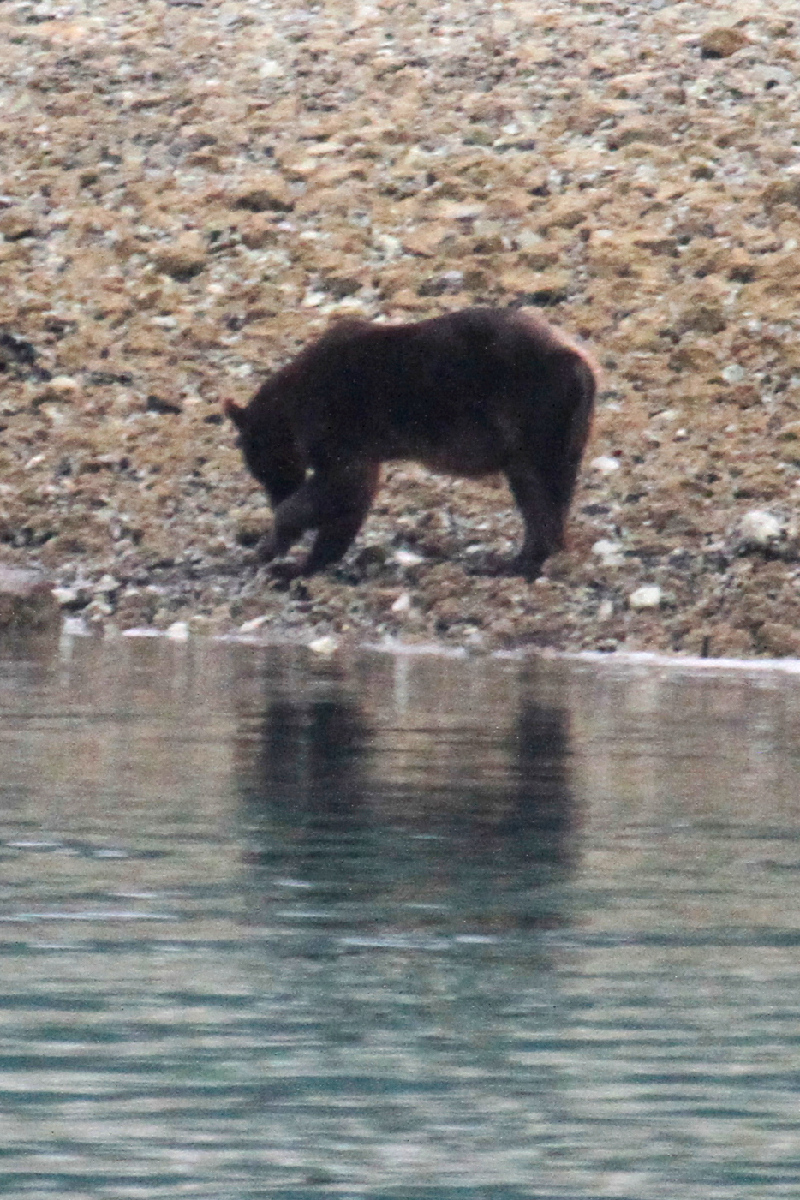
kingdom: Animalia
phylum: Chordata
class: Mammalia
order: Carnivora
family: Ursidae
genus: Ursus
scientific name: Ursus arctos
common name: Brown bear
